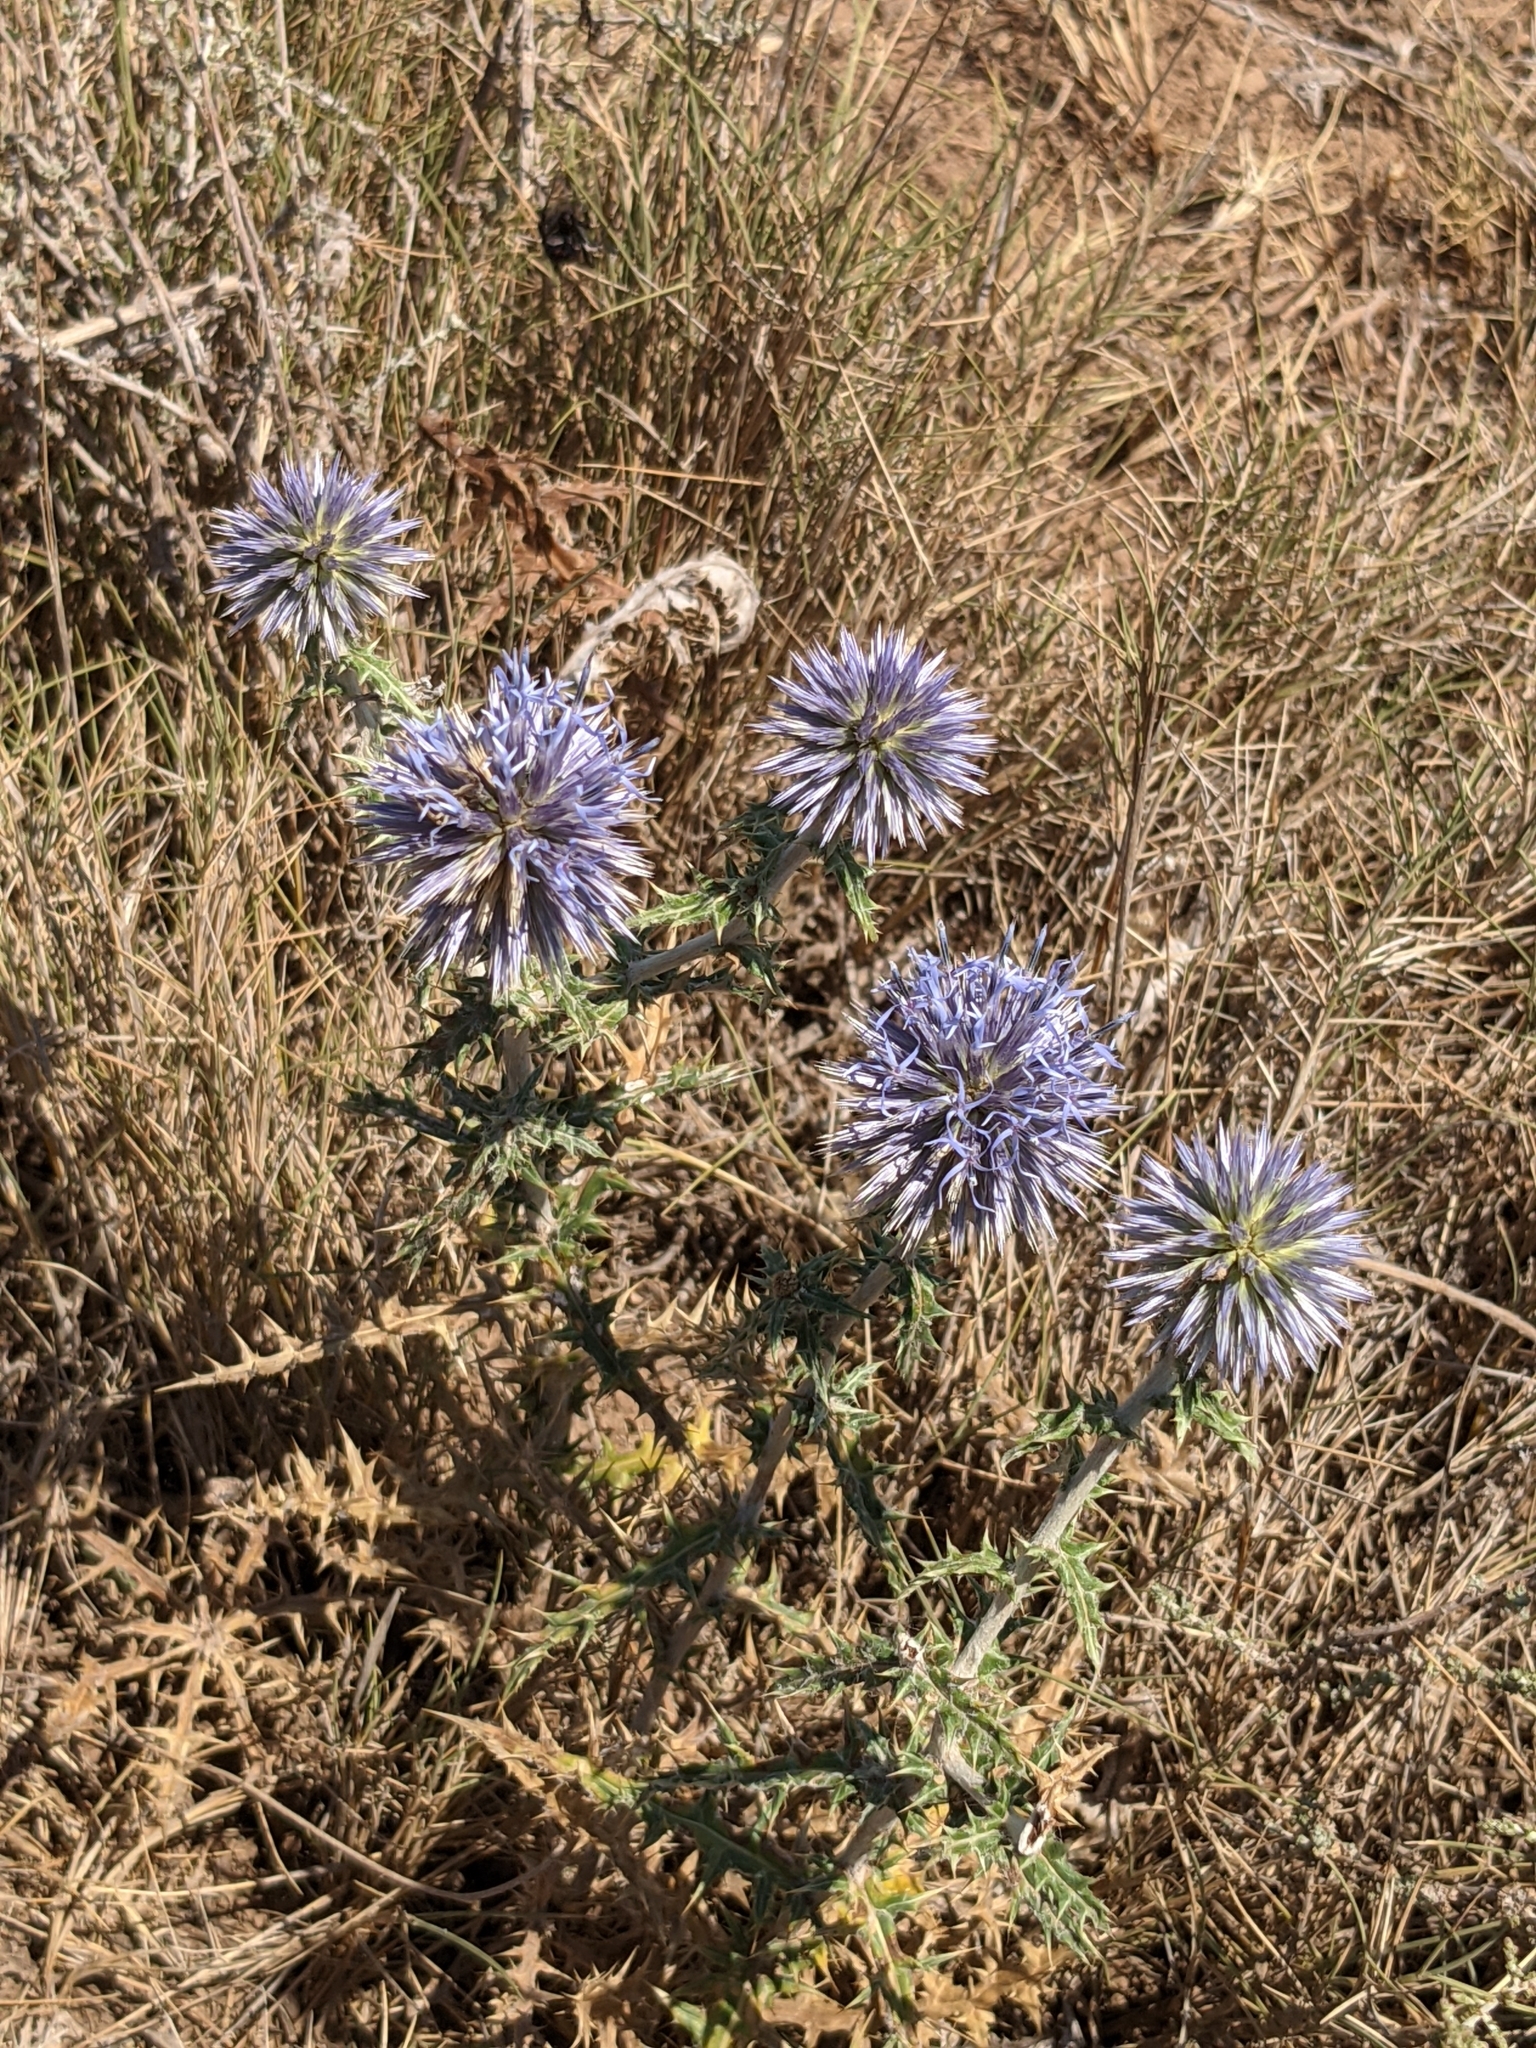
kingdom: Plantae
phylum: Tracheophyta
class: Magnoliopsida
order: Asterales
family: Asteraceae
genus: Echinops
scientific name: Echinops ritro
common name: Globe thistle
